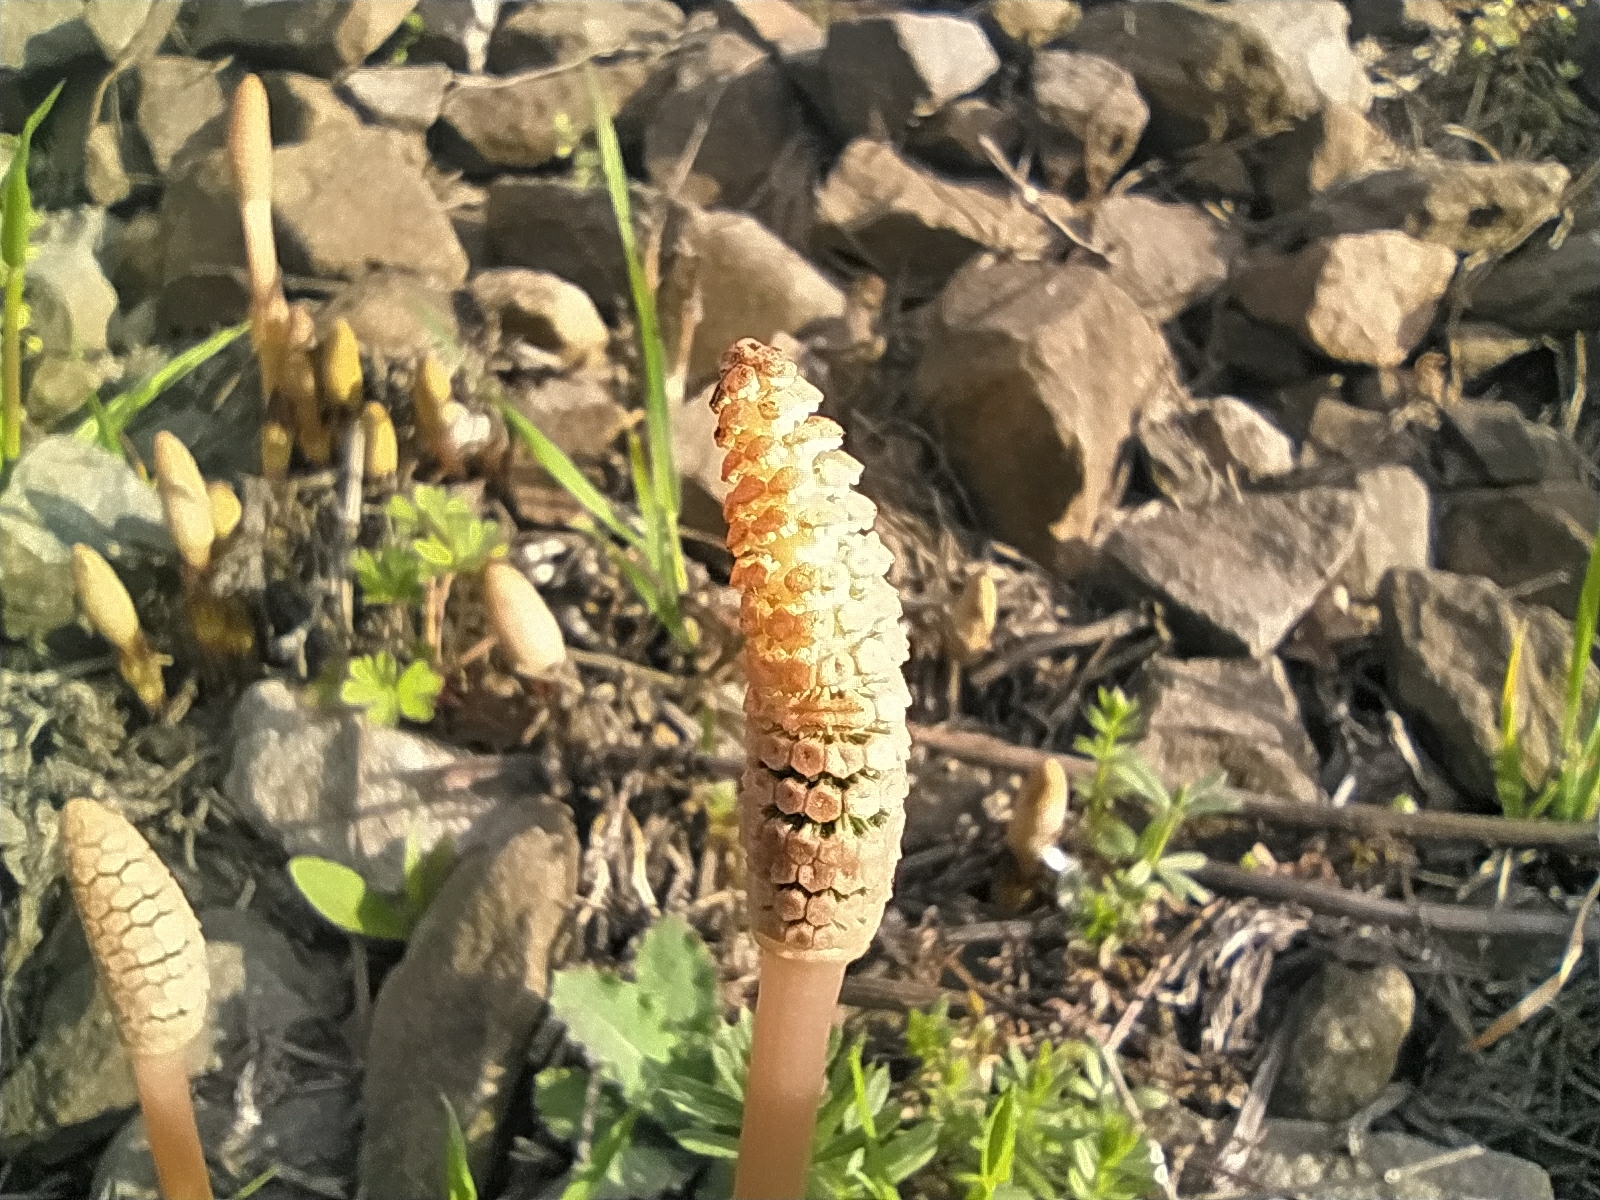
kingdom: Plantae
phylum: Tracheophyta
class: Polypodiopsida
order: Equisetales
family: Equisetaceae
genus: Equisetum
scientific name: Equisetum arvense
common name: Field horsetail
